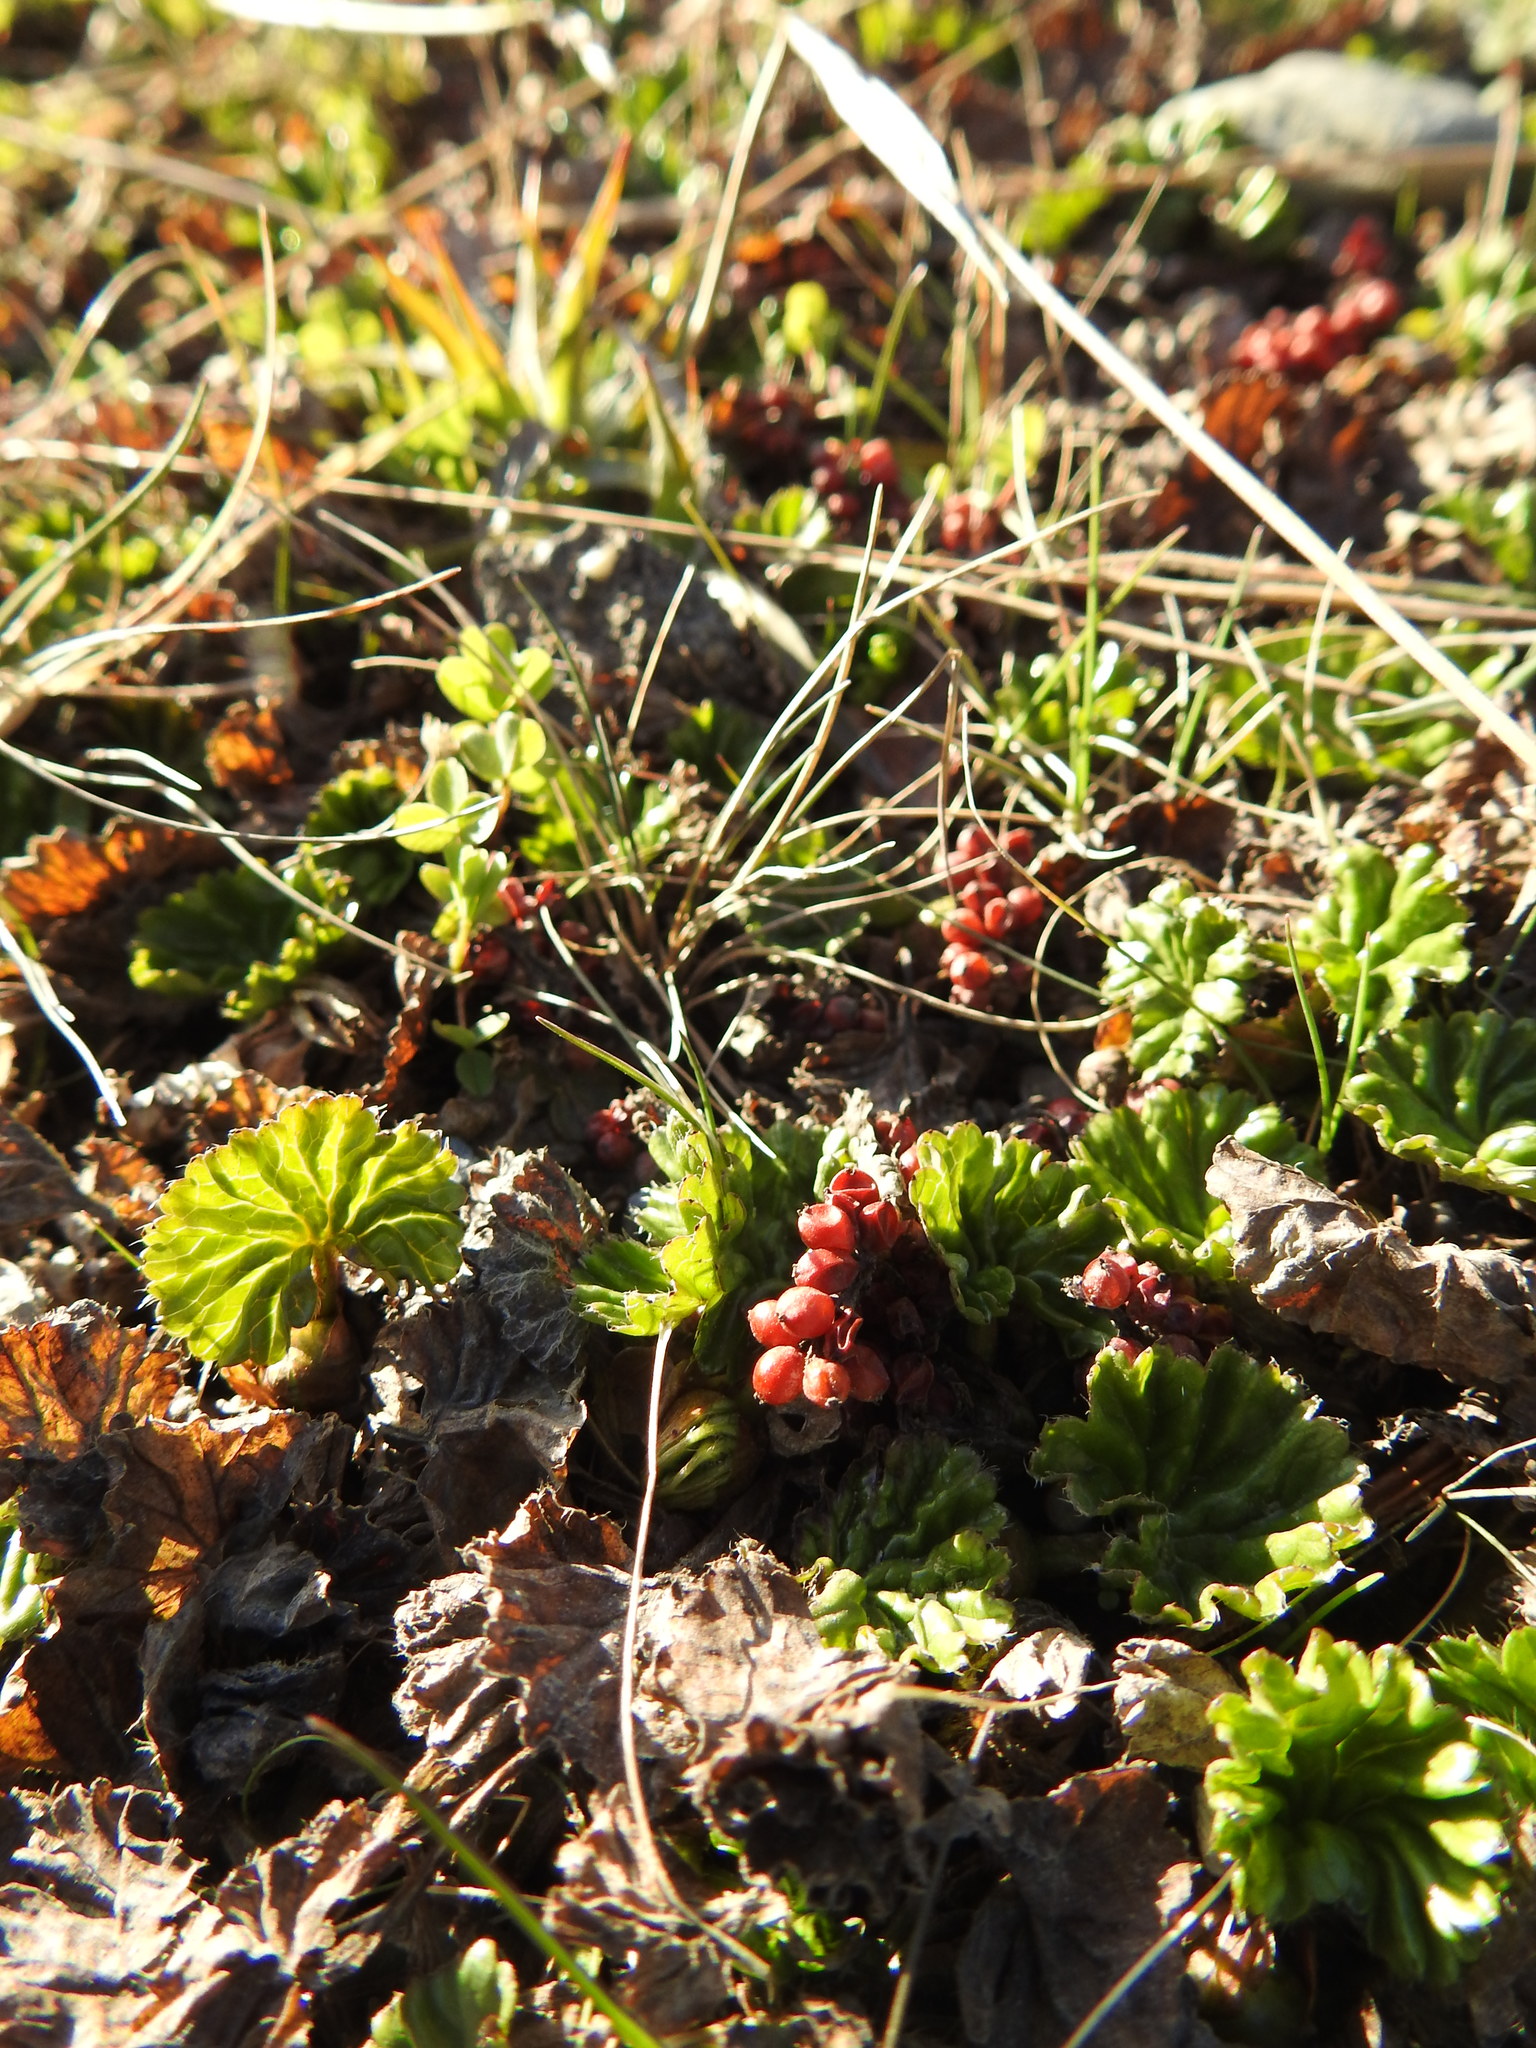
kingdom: Plantae
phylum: Tracheophyta
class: Magnoliopsida
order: Gunnerales
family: Gunneraceae
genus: Gunnera
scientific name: Gunnera magellanica
